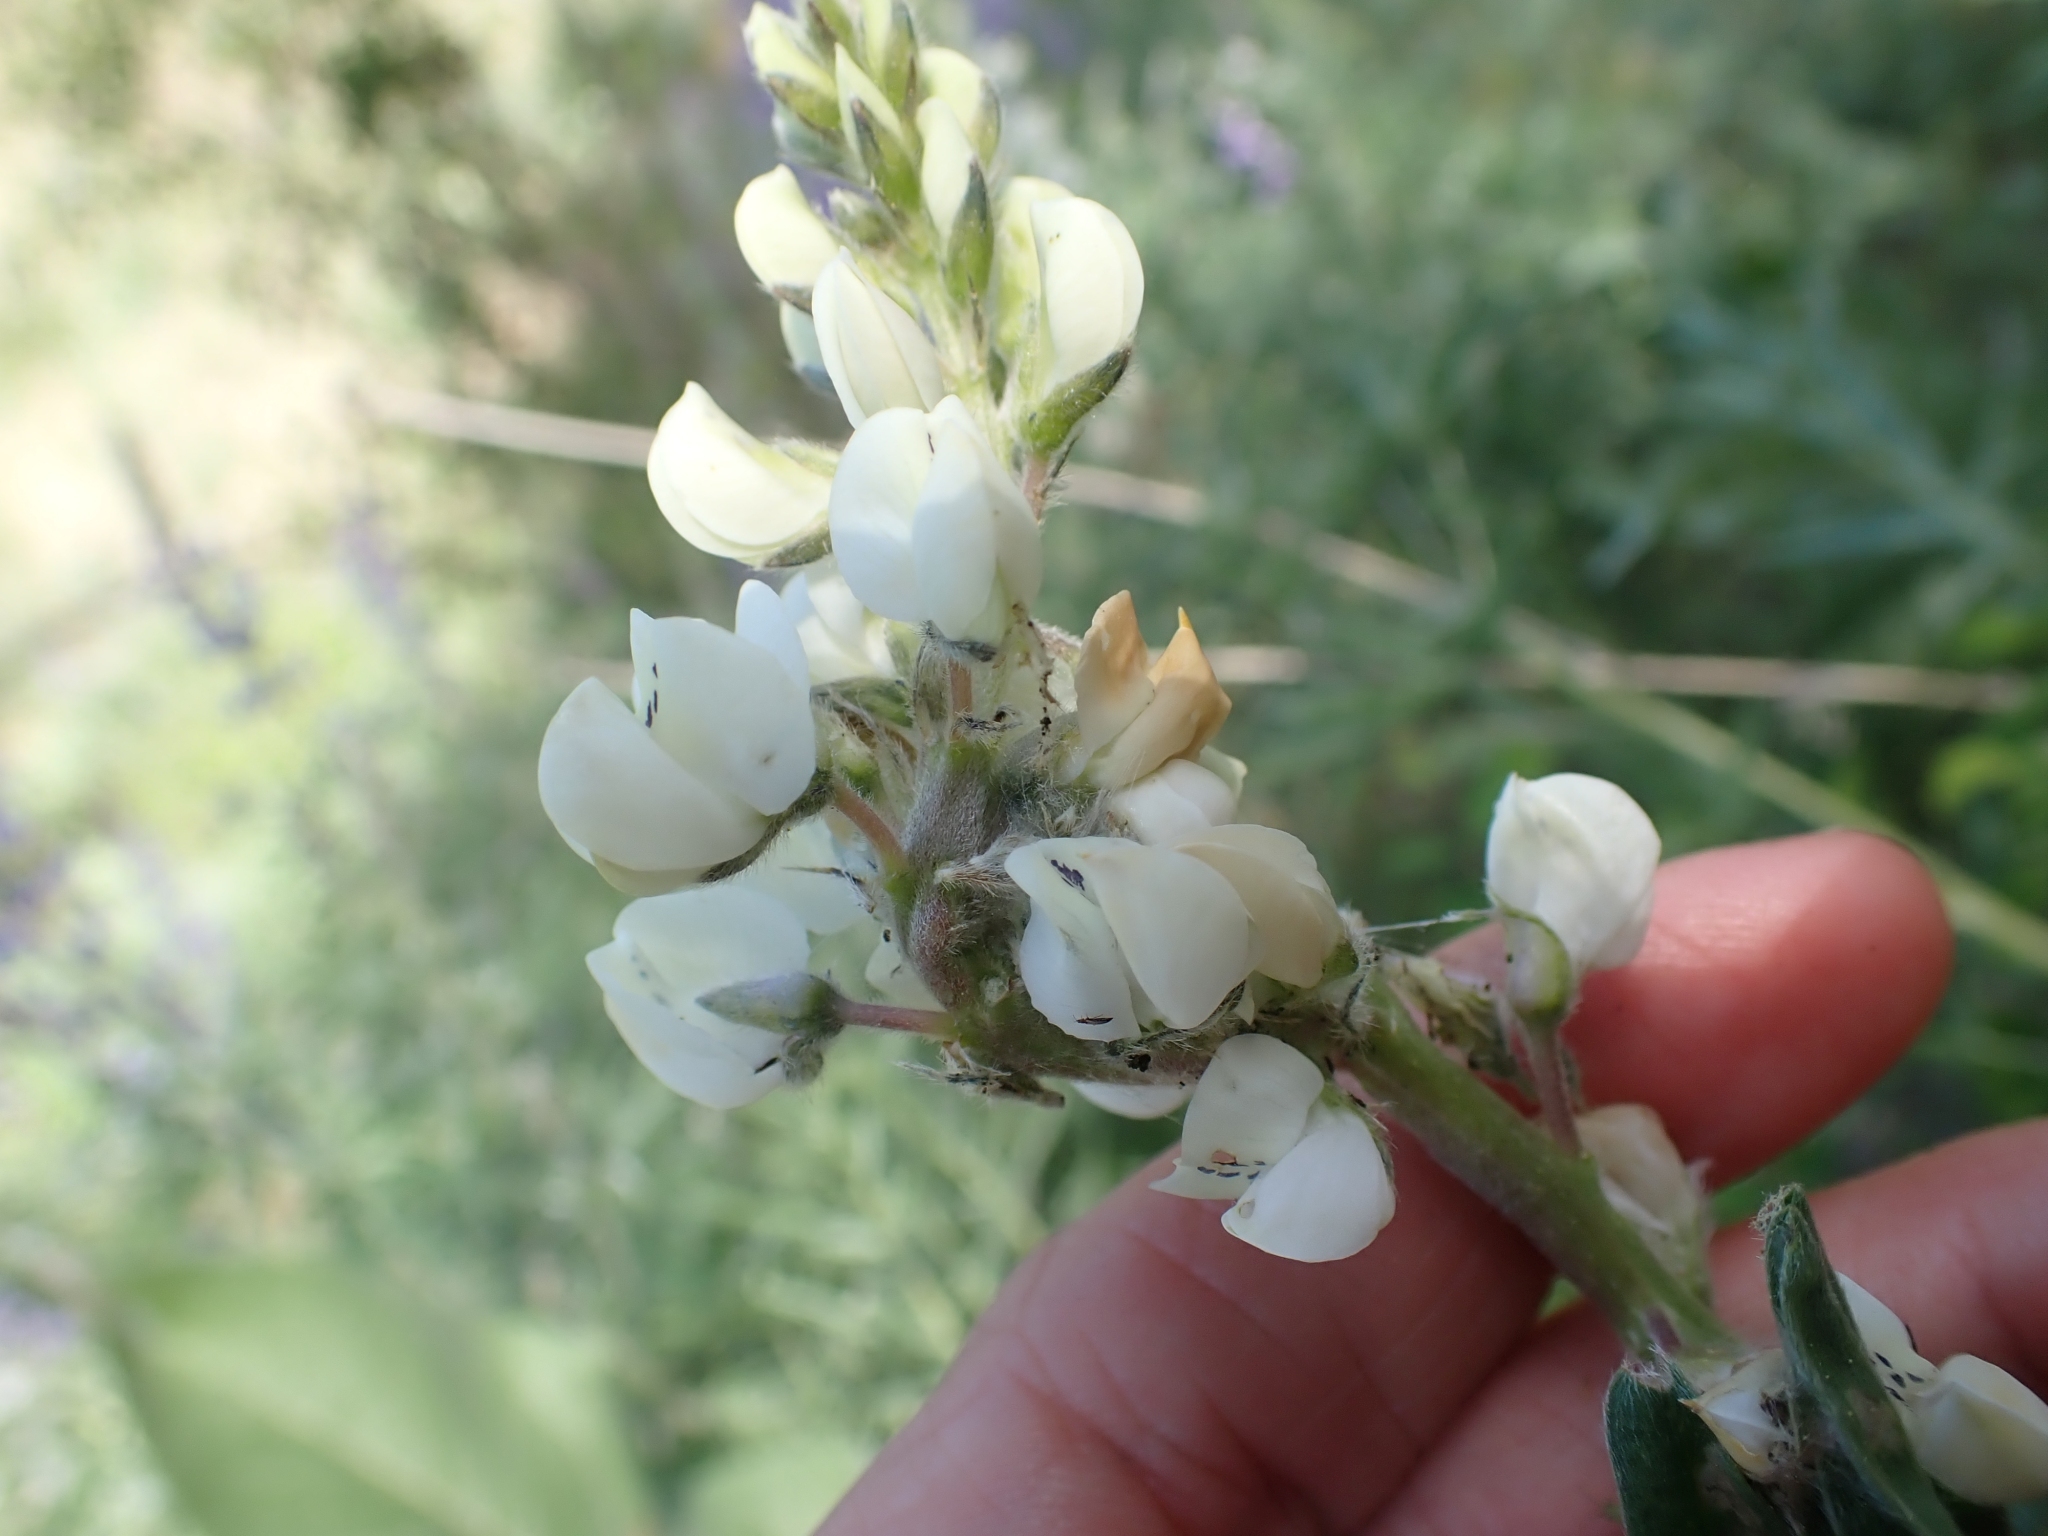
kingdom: Plantae
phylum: Tracheophyta
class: Magnoliopsida
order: Fabales
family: Fabaceae
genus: Lupinus
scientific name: Lupinus sulphureus
